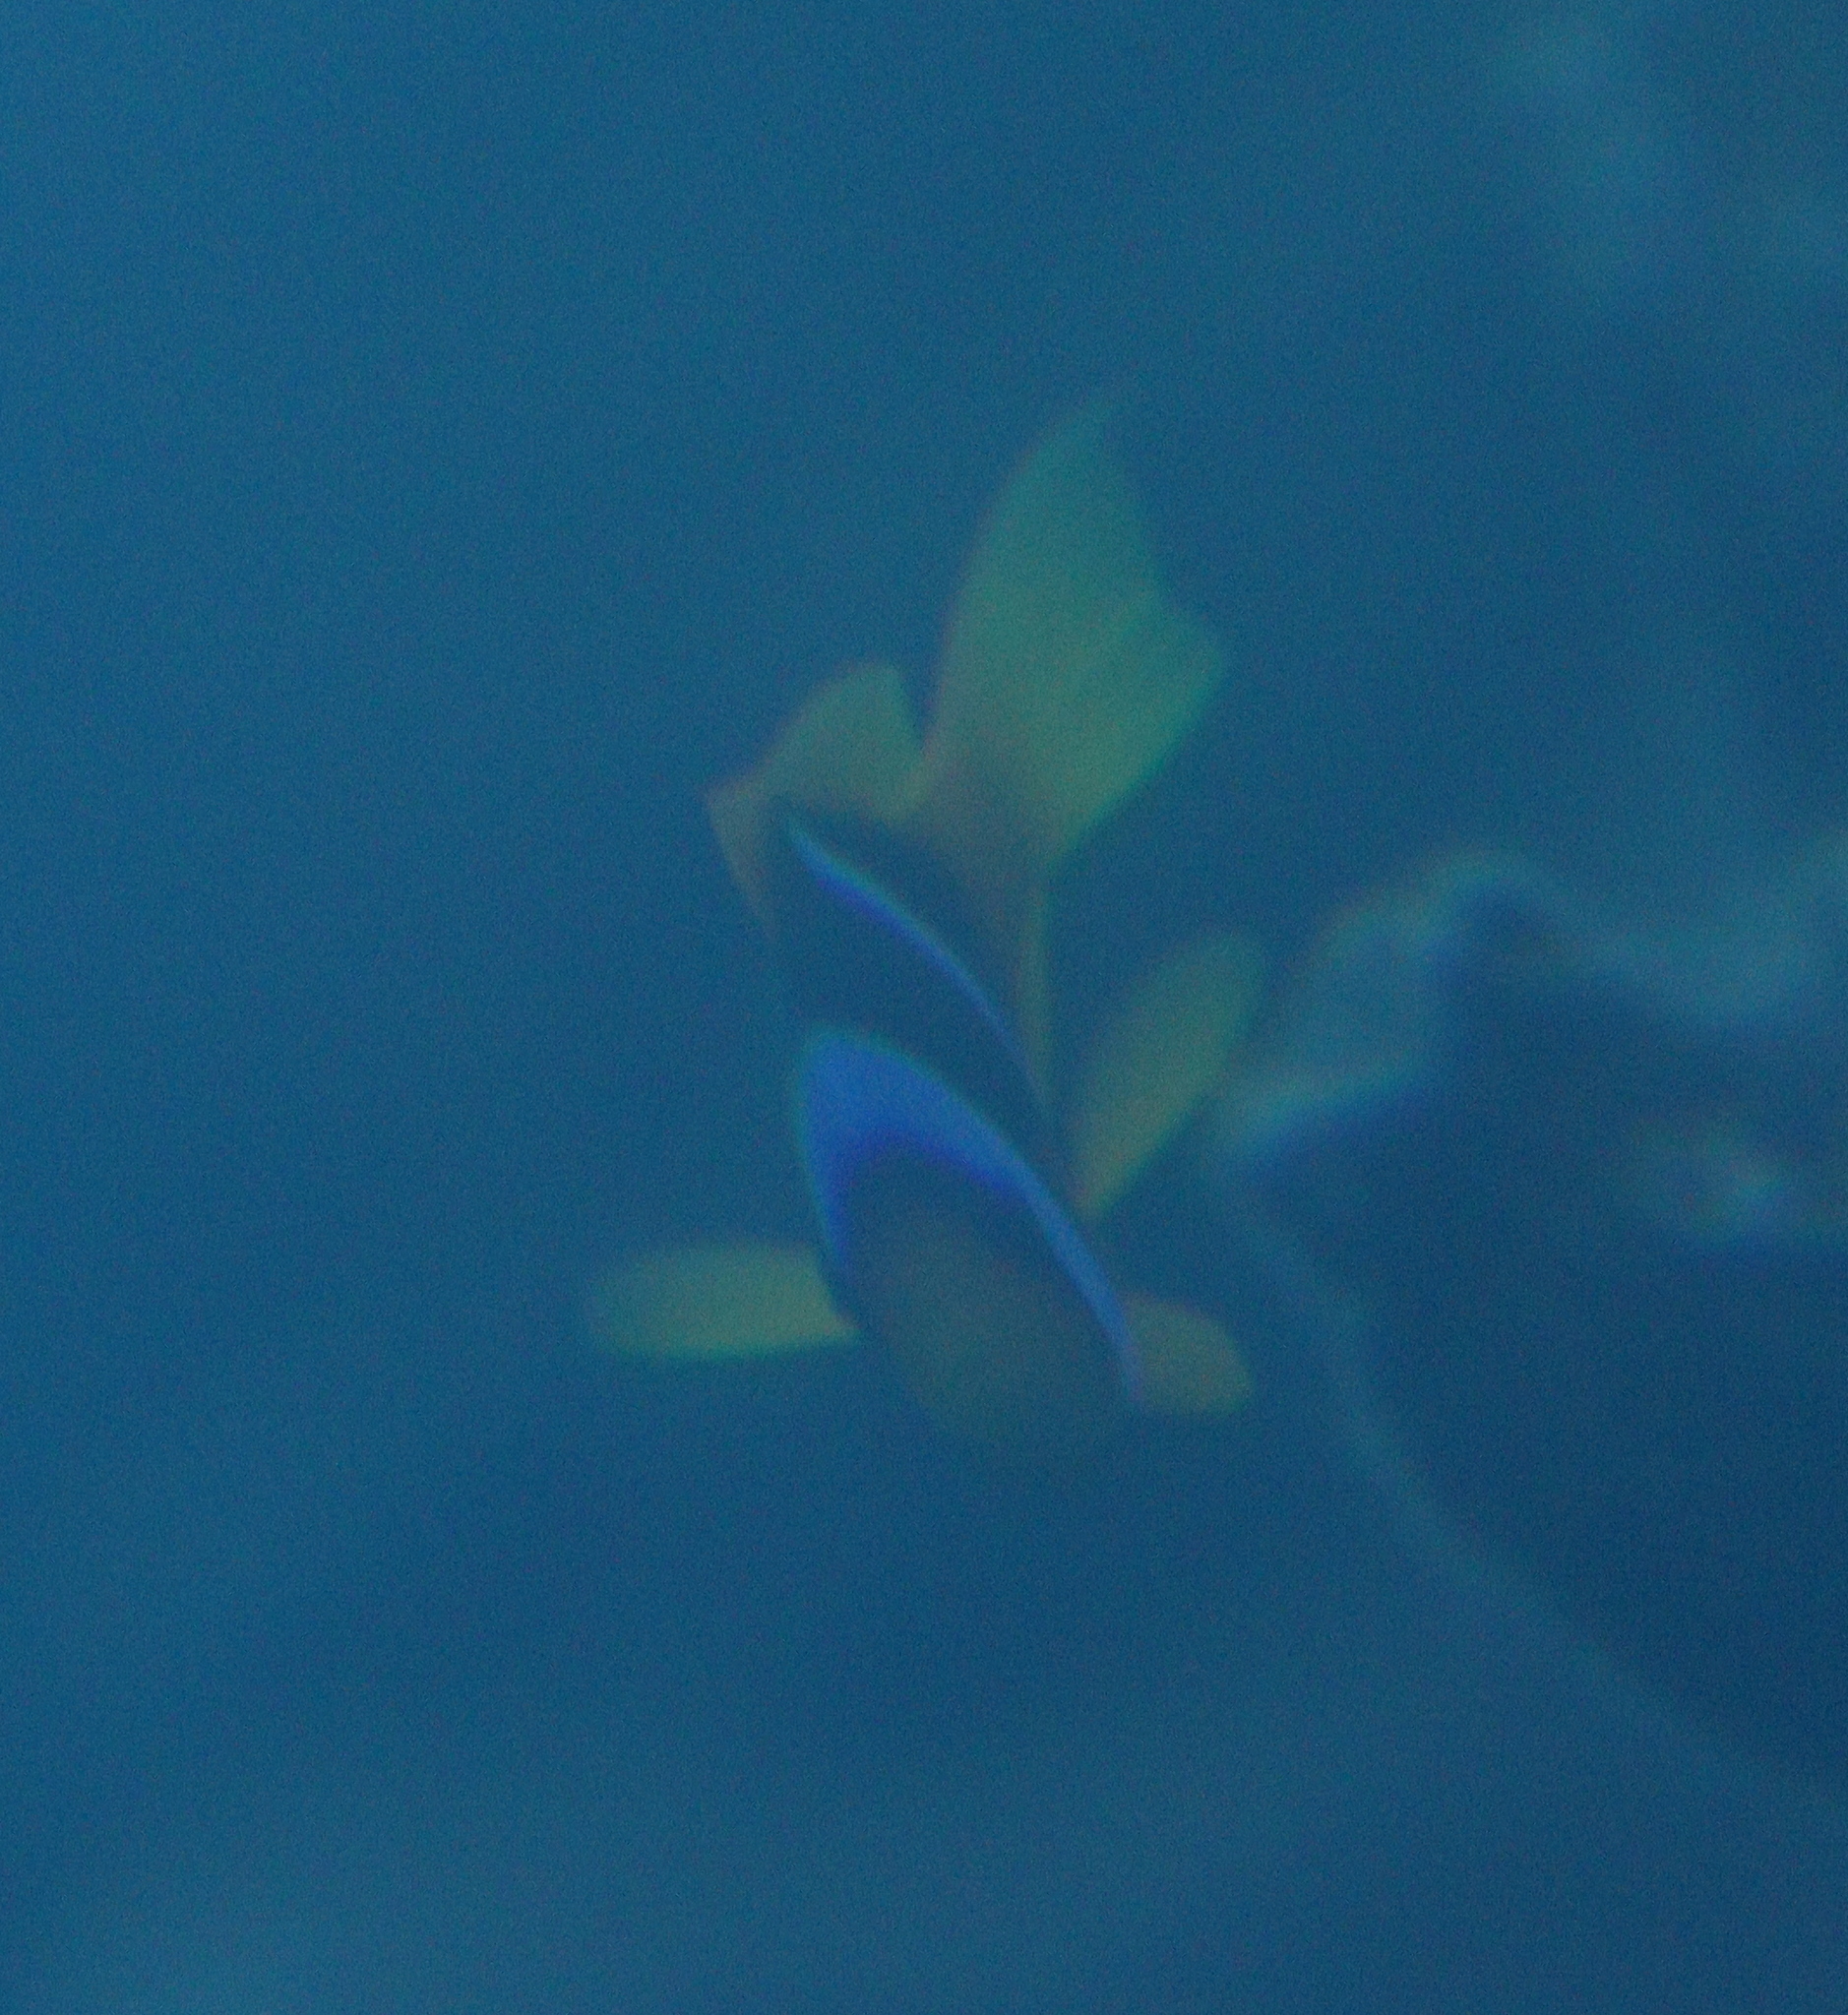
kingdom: Animalia
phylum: Chordata
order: Perciformes
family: Pomacentridae
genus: Amphiprion
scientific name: Amphiprion bicinctus
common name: Two-banded anemonefish
